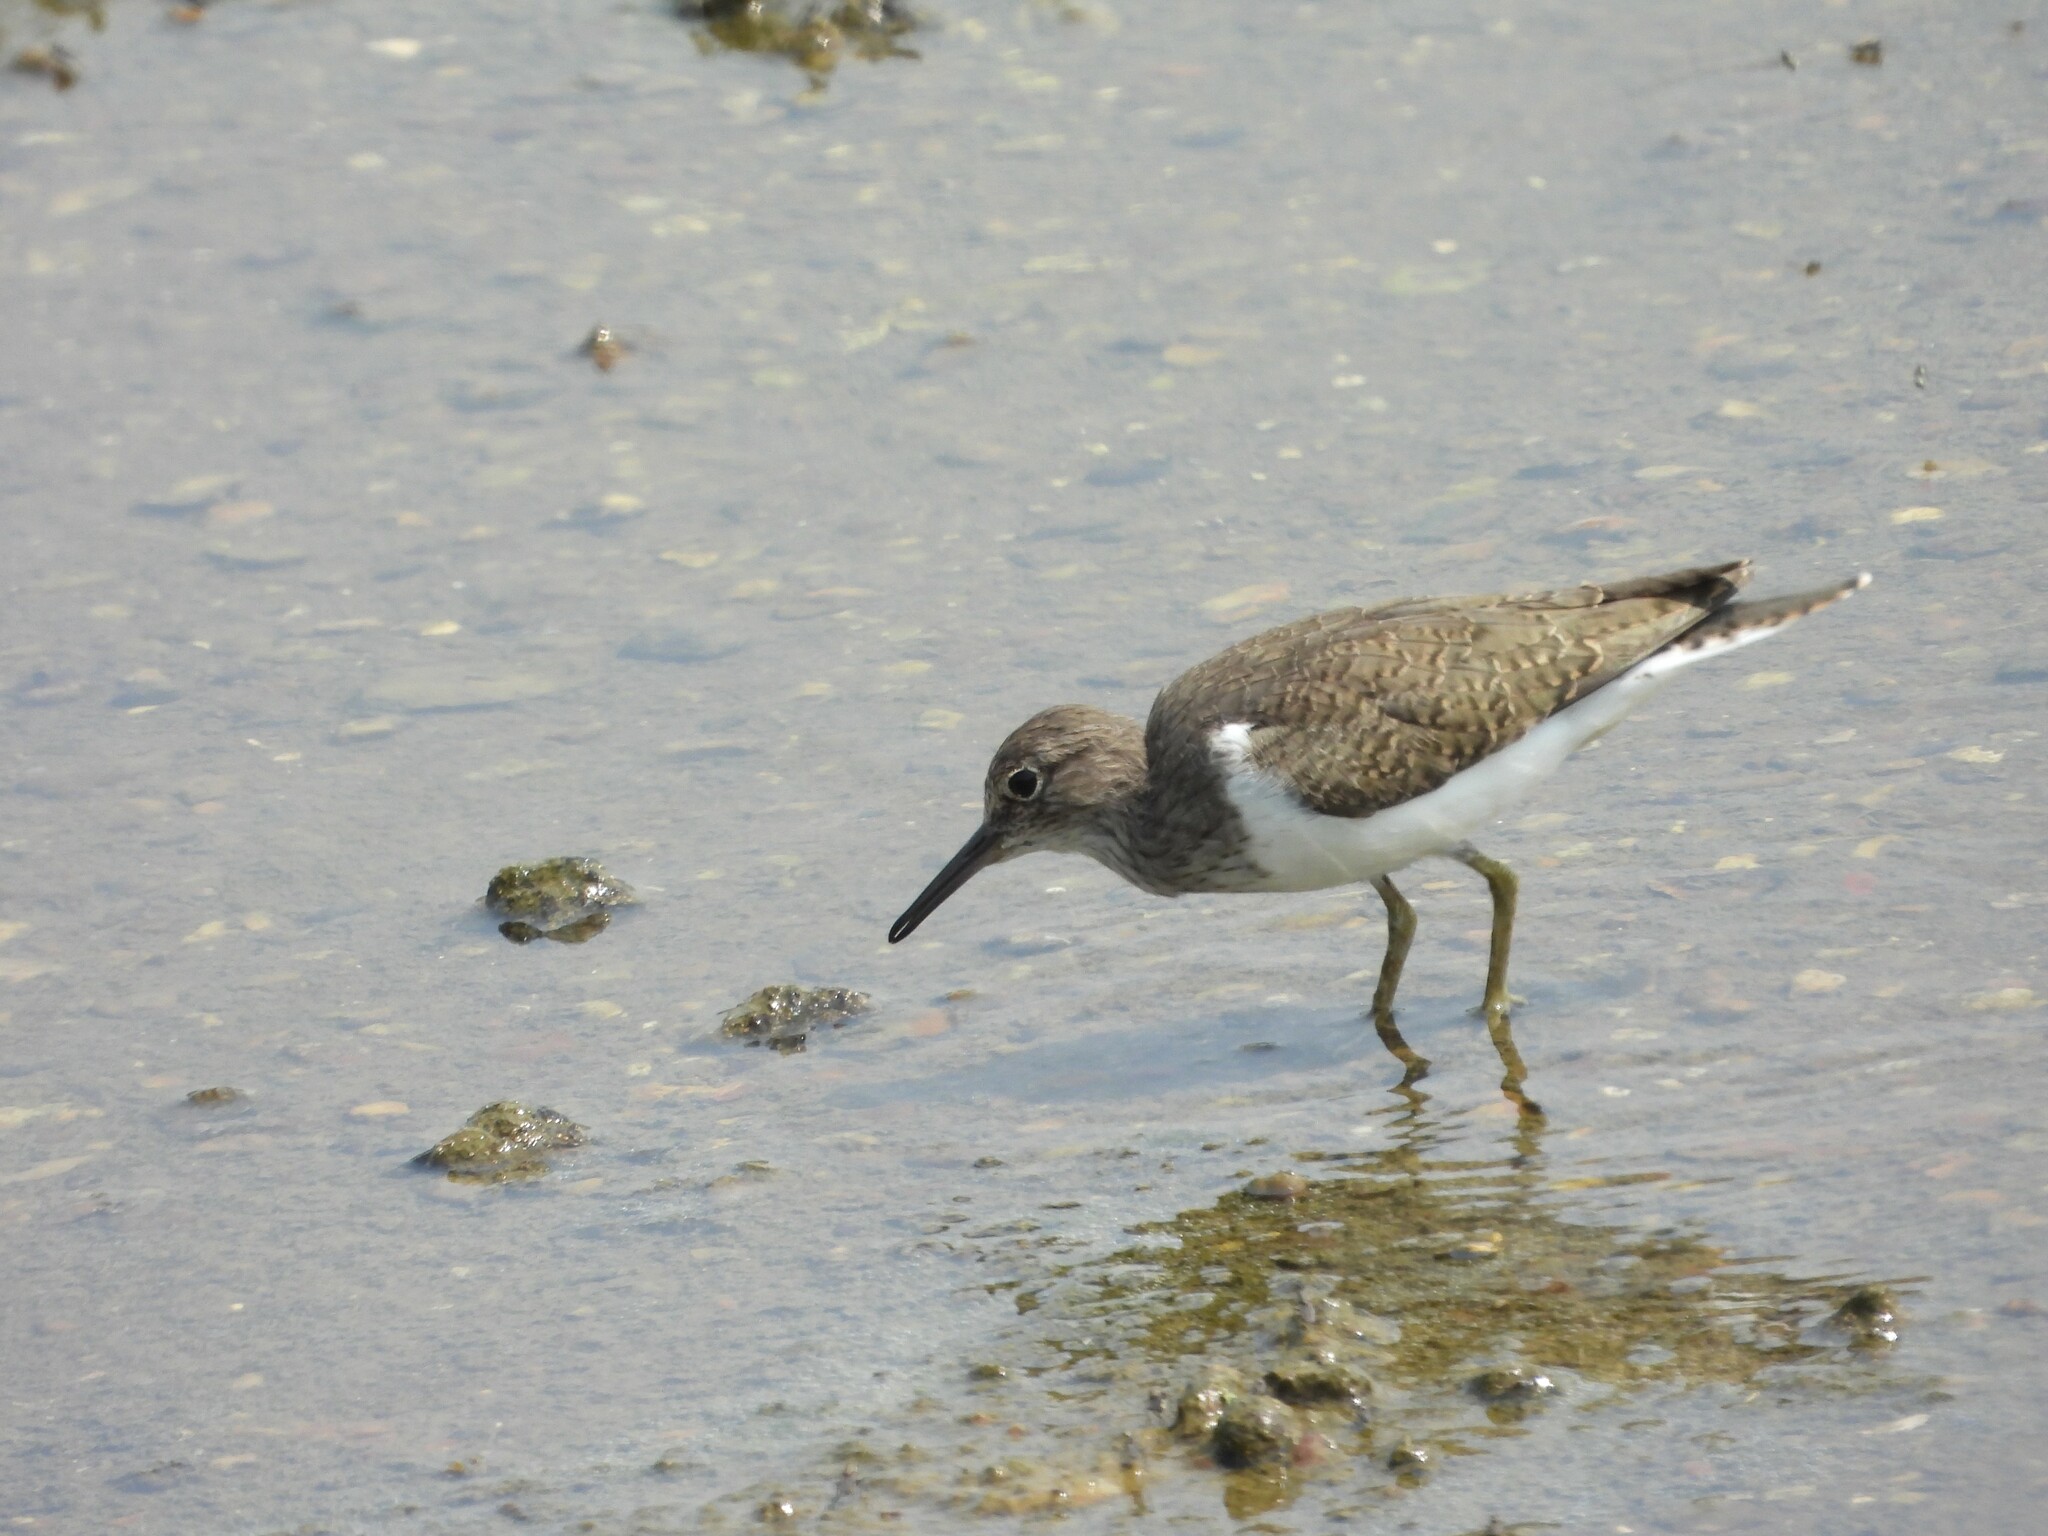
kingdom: Animalia
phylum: Chordata
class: Aves
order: Charadriiformes
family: Scolopacidae
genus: Actitis
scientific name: Actitis hypoleucos
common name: Common sandpiper
